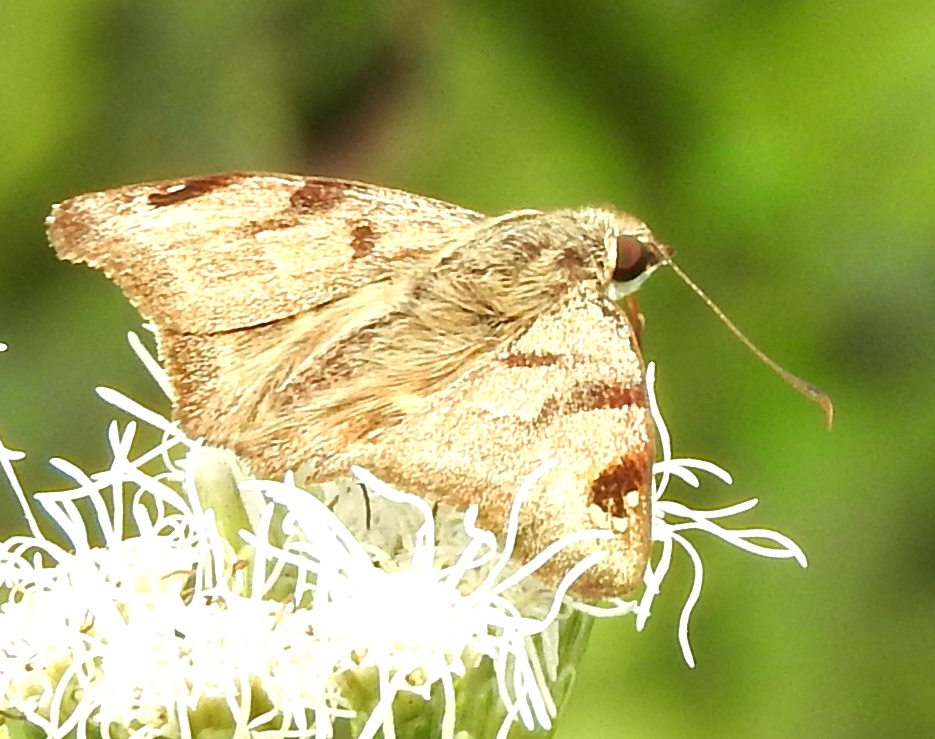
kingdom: Animalia
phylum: Arthropoda
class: Insecta
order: Lepidoptera
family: Hesperiidae
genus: Arteurotia
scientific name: Arteurotia tractipennis
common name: Starred skipper
